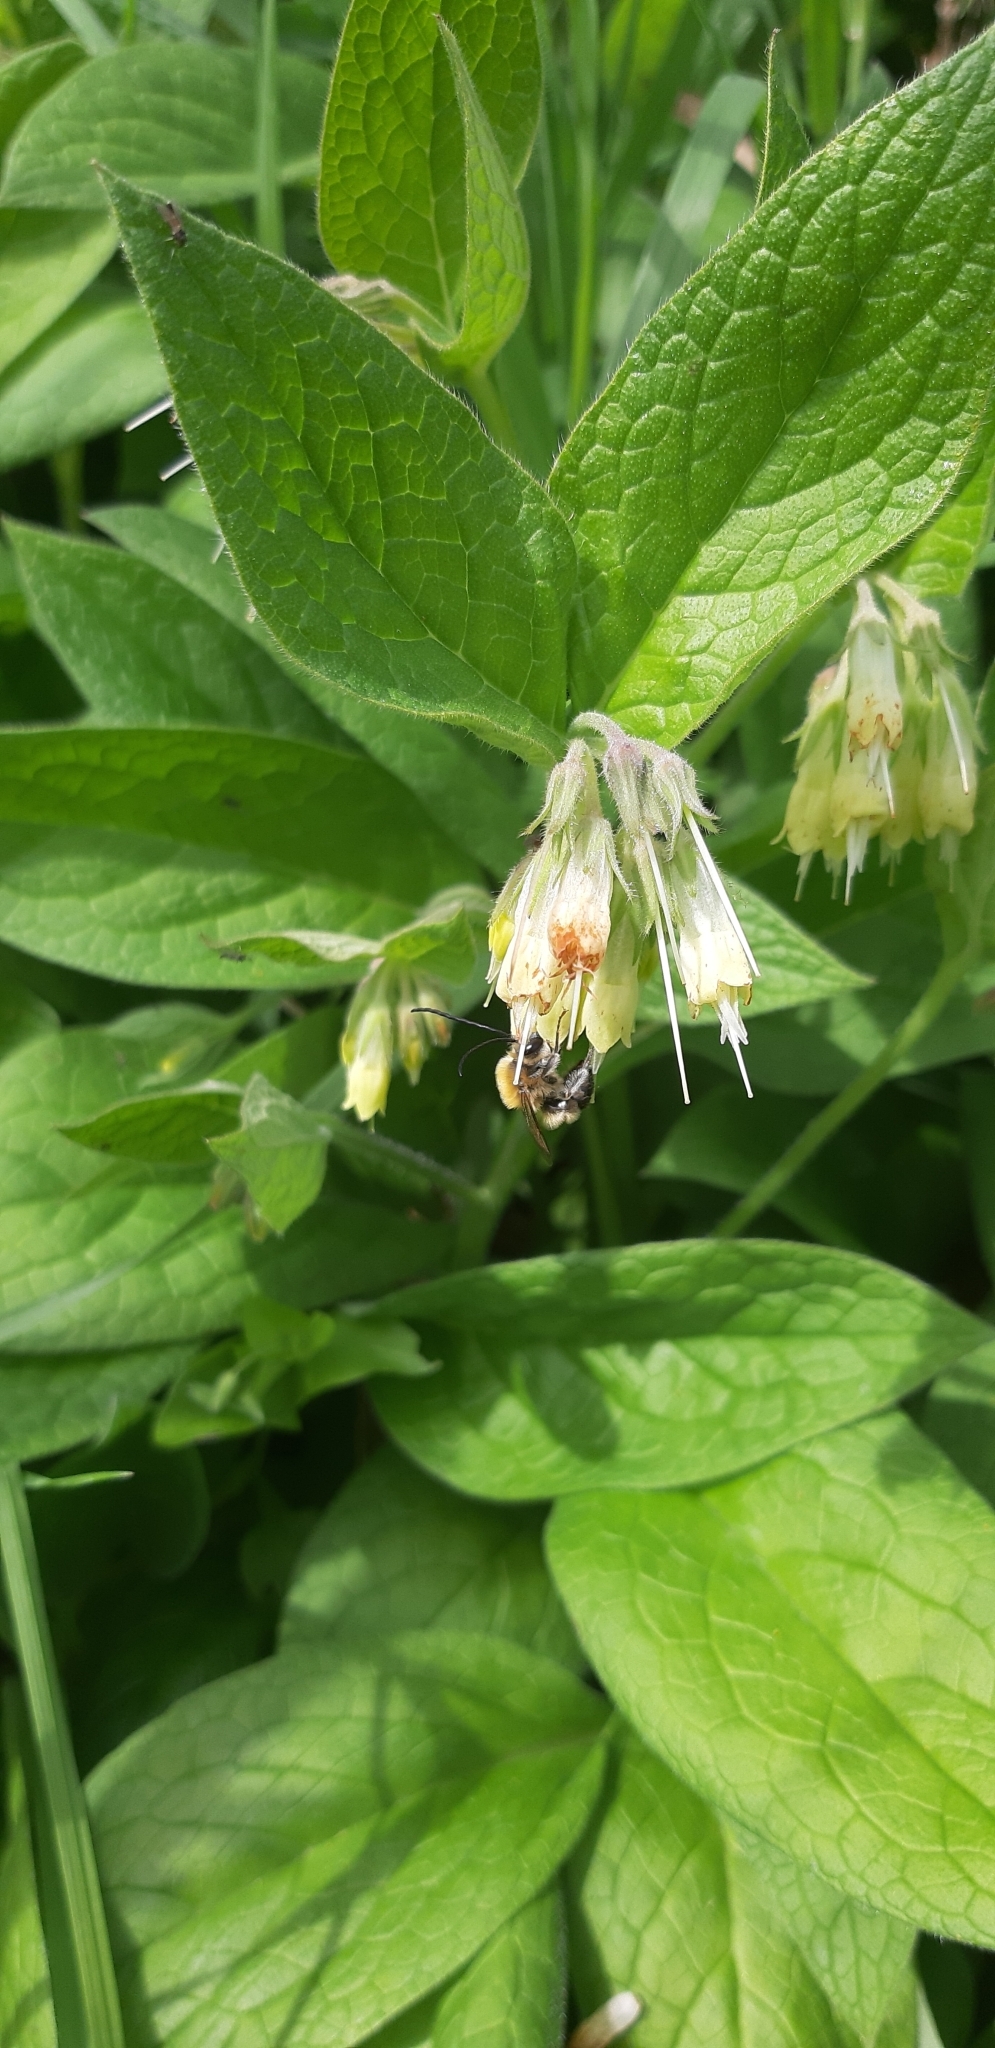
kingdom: Plantae
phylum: Tracheophyta
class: Magnoliopsida
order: Boraginales
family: Boraginaceae
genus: Symphytum
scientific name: Symphytum bulbosum
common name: Bulbous comfrey
